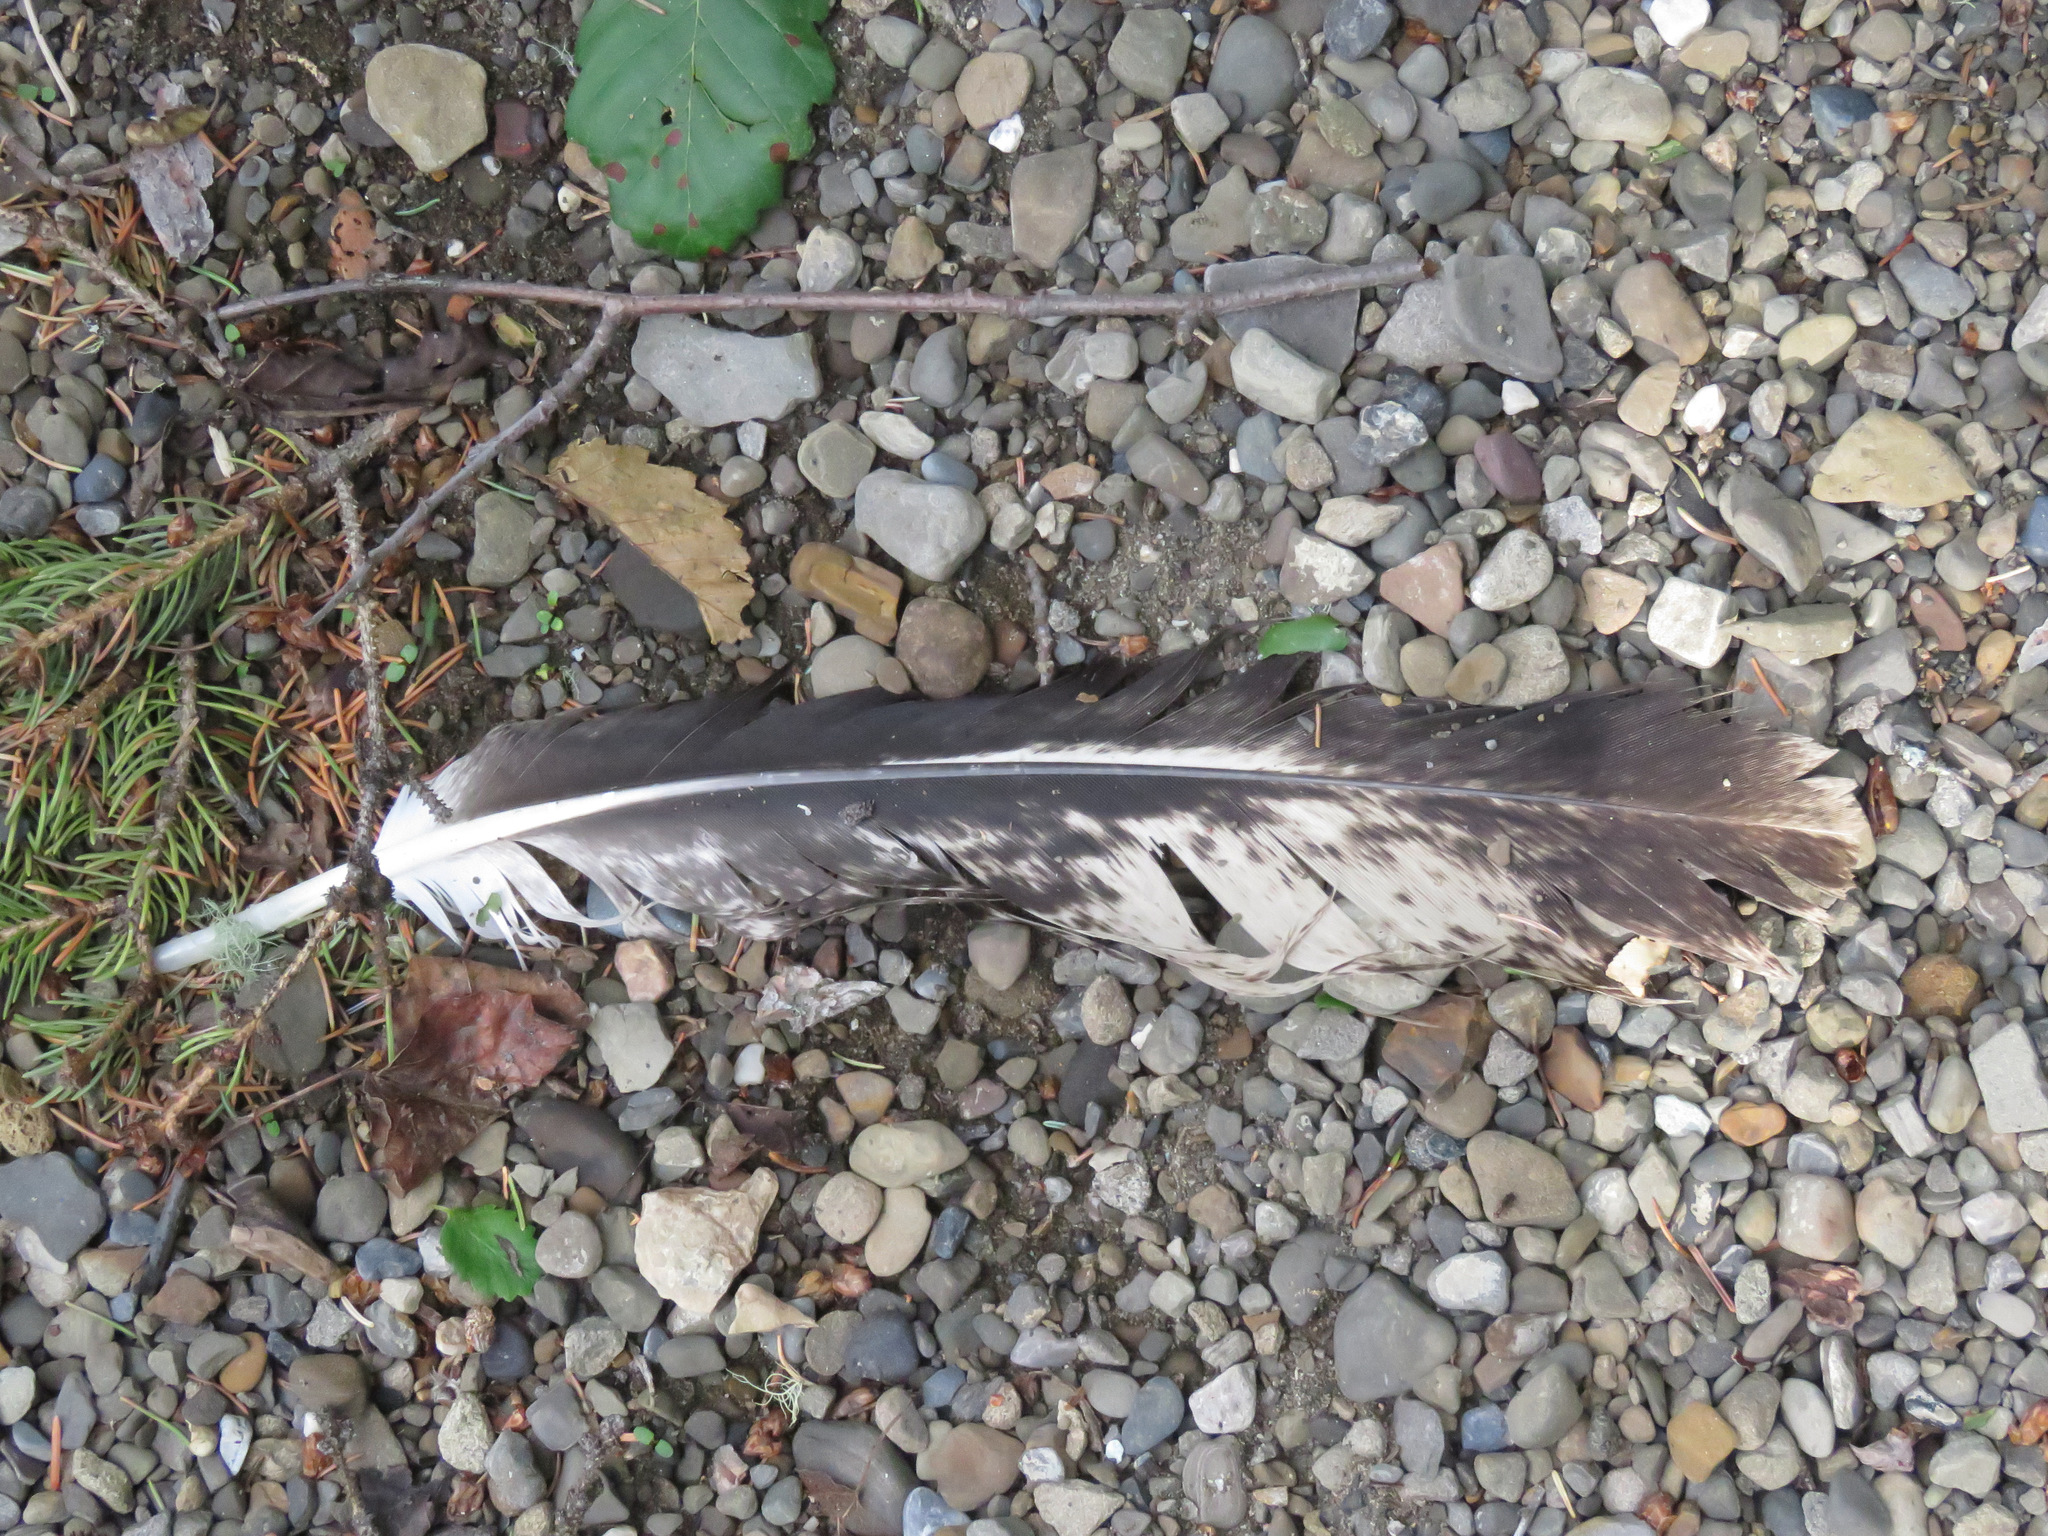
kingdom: Animalia
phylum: Chordata
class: Aves
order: Accipitriformes
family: Accipitridae
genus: Haliaeetus
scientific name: Haliaeetus leucocephalus
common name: Bald eagle
